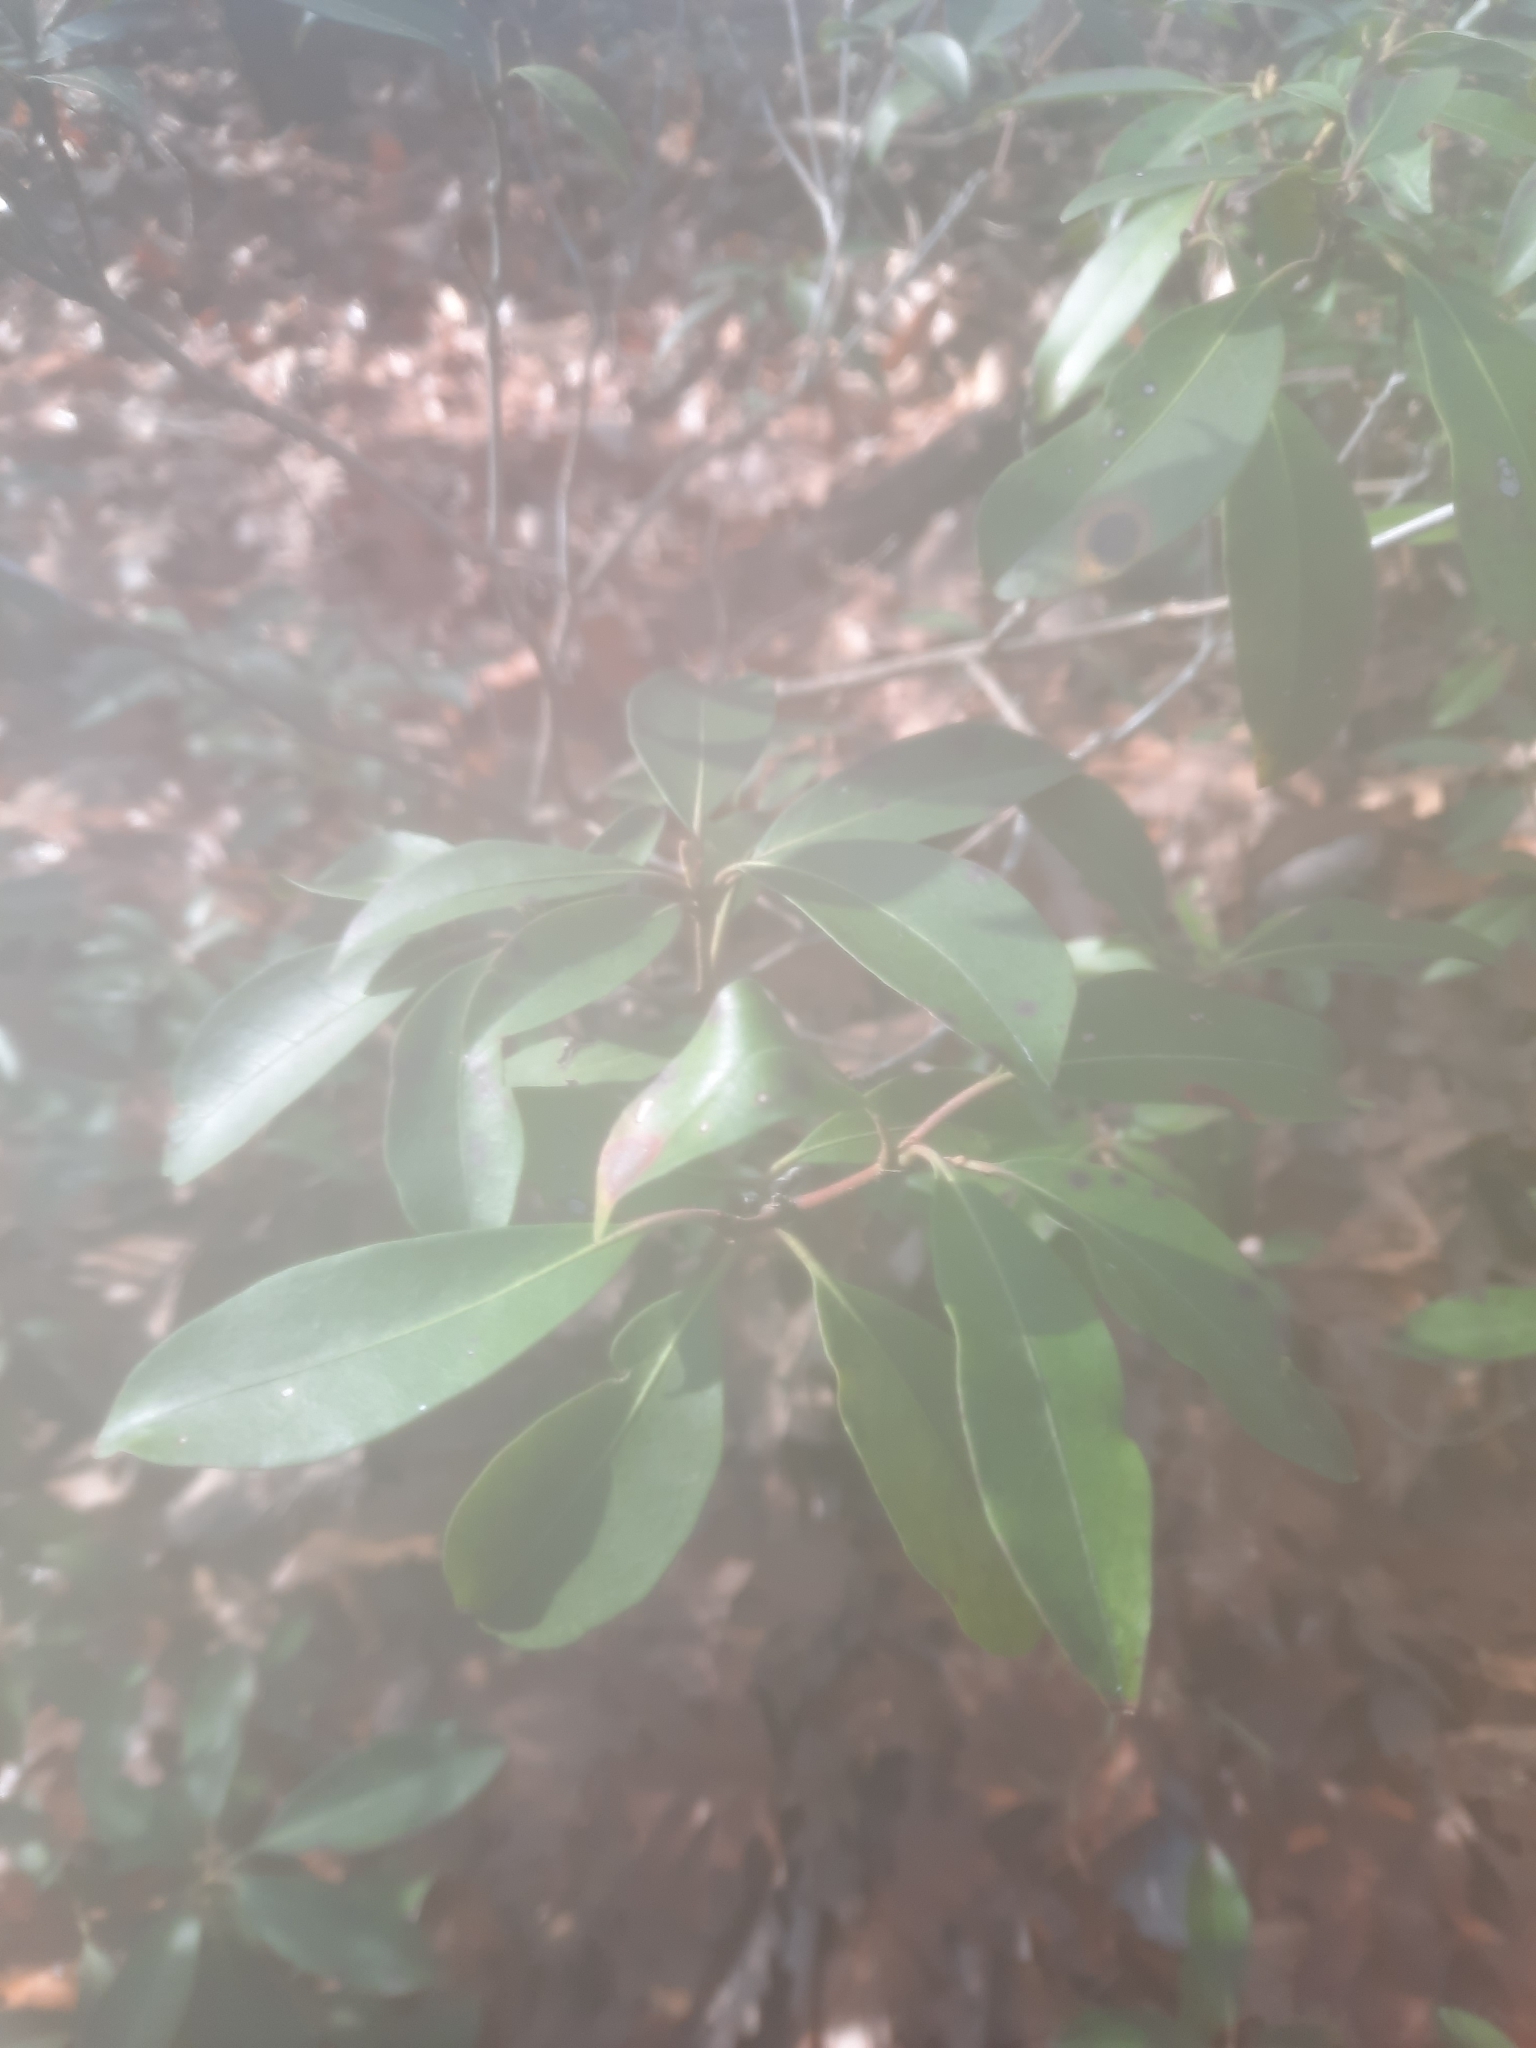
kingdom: Plantae
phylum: Tracheophyta
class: Magnoliopsida
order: Ericales
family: Ericaceae
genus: Kalmia
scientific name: Kalmia latifolia
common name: Mountain-laurel
